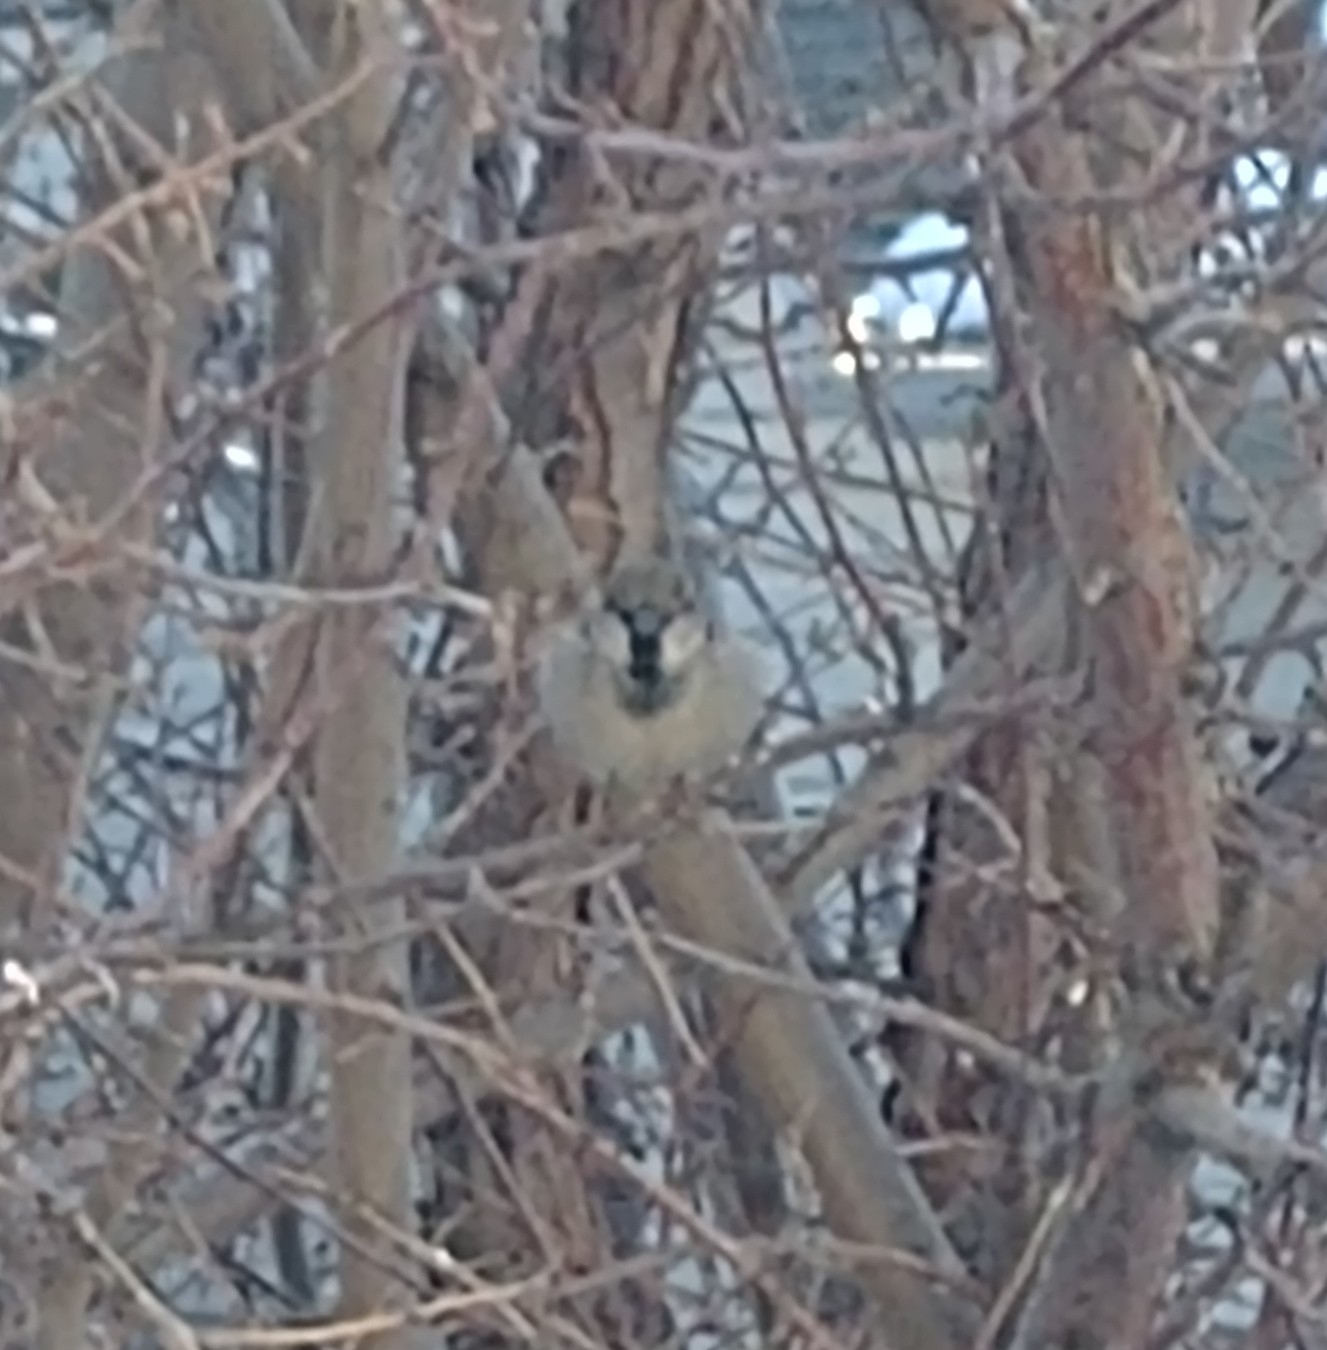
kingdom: Animalia
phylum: Chordata
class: Aves
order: Passeriformes
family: Passeridae
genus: Passer
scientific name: Passer domesticus
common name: House sparrow
